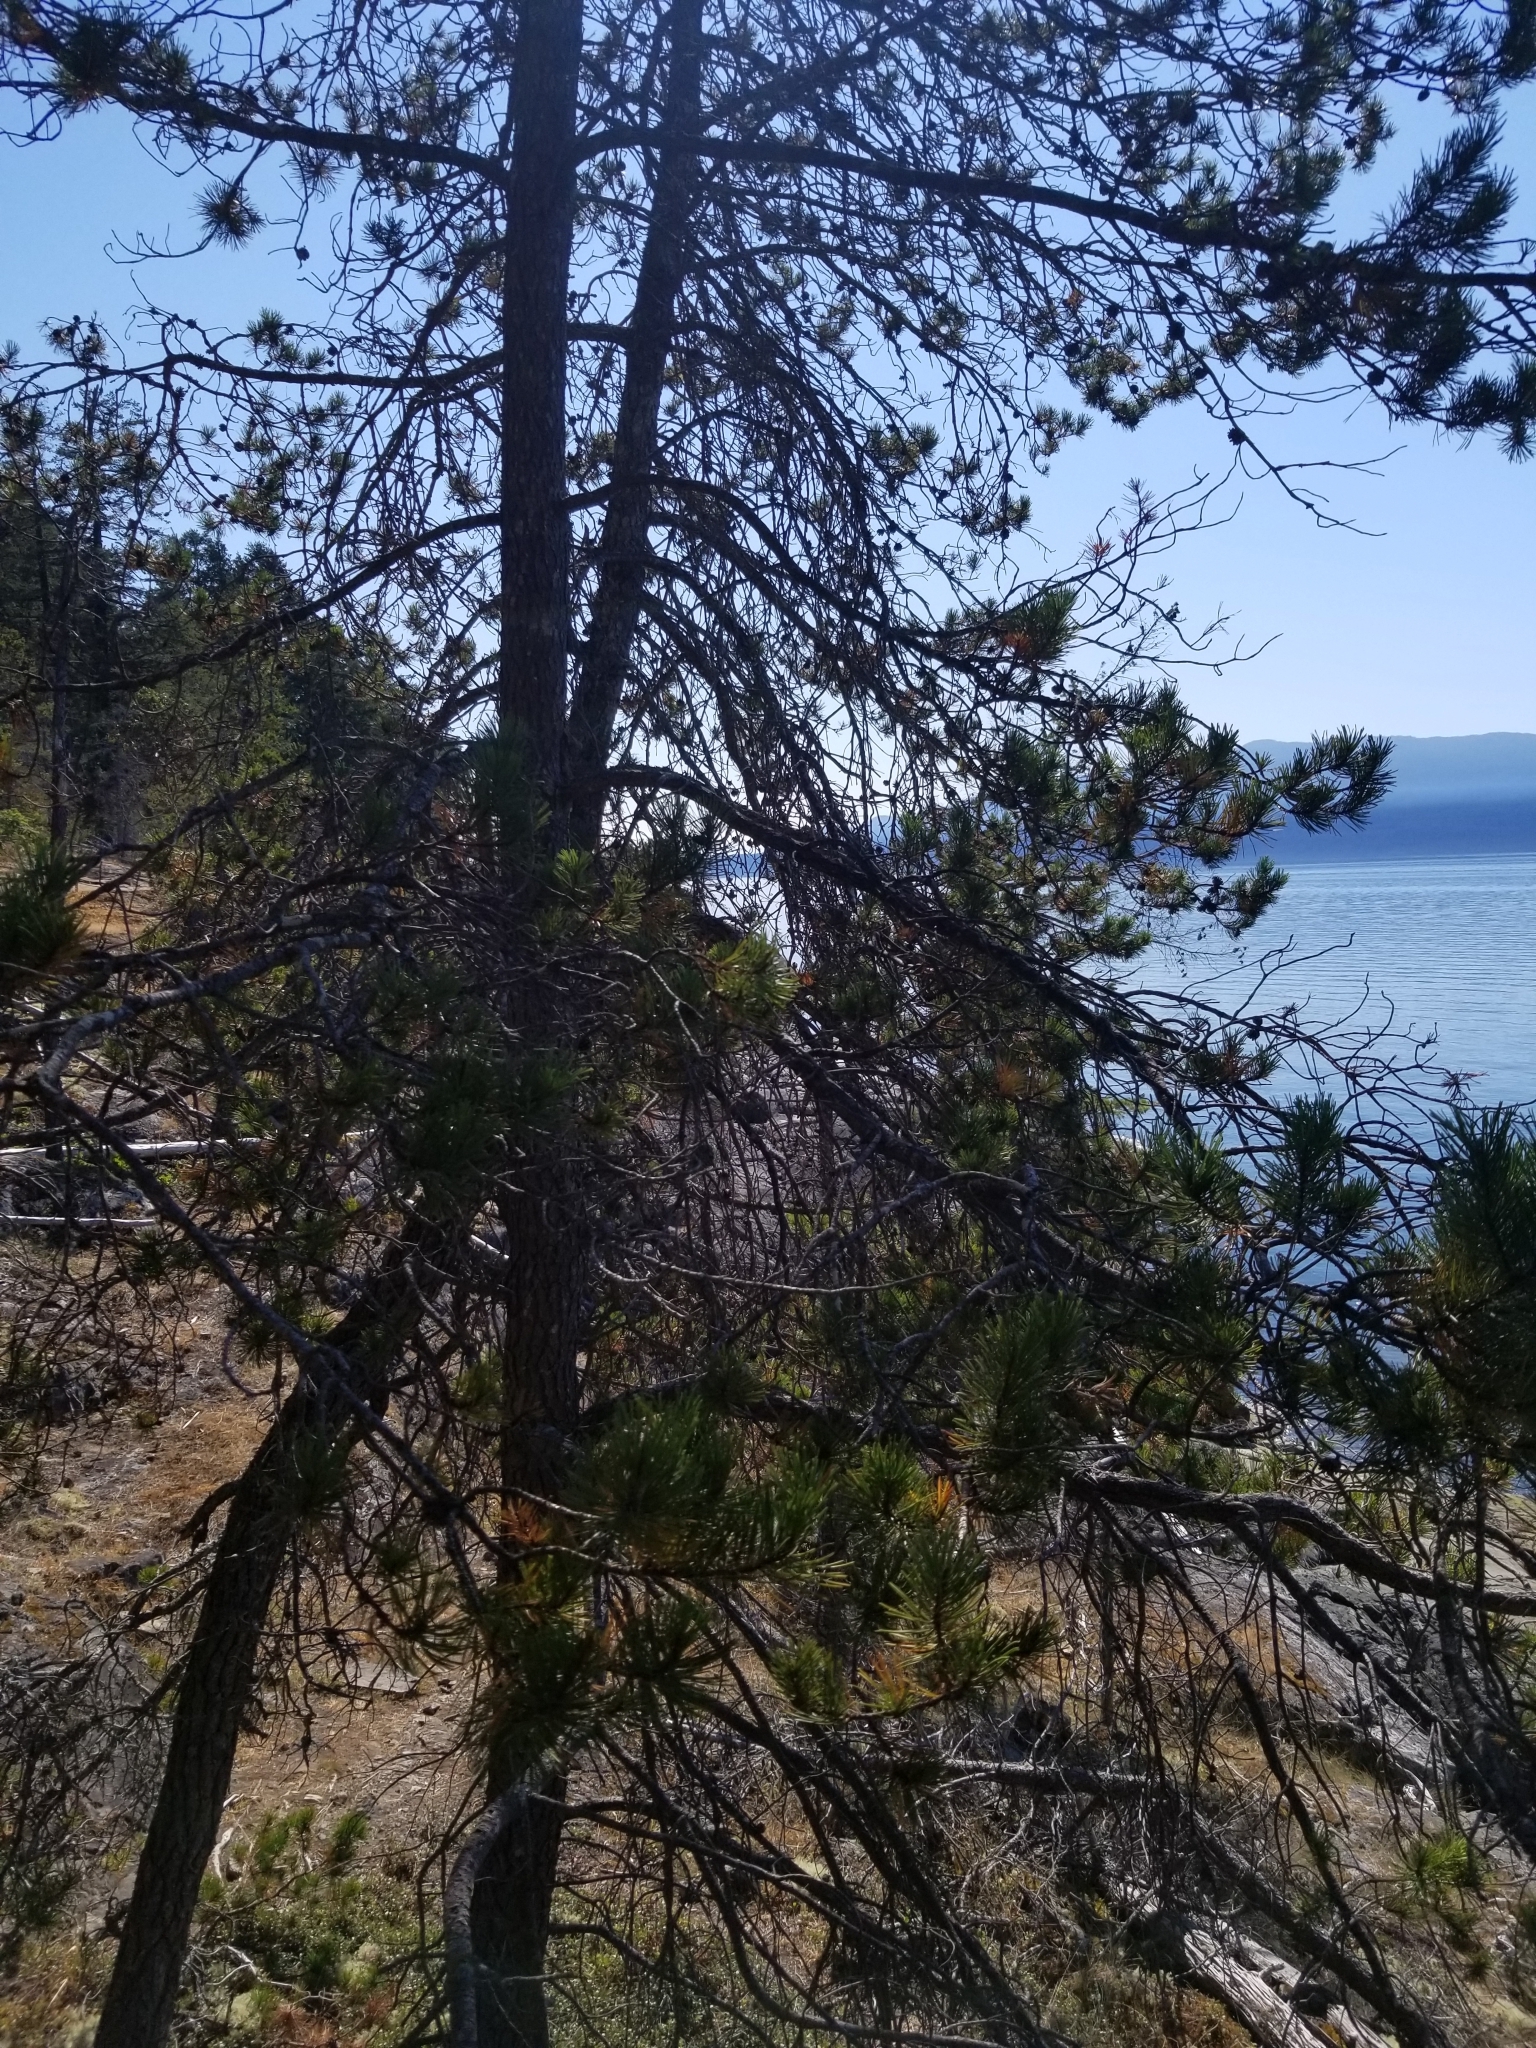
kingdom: Plantae
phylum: Tracheophyta
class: Pinopsida
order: Pinales
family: Pinaceae
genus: Pinus
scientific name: Pinus contorta
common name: Lodgepole pine
